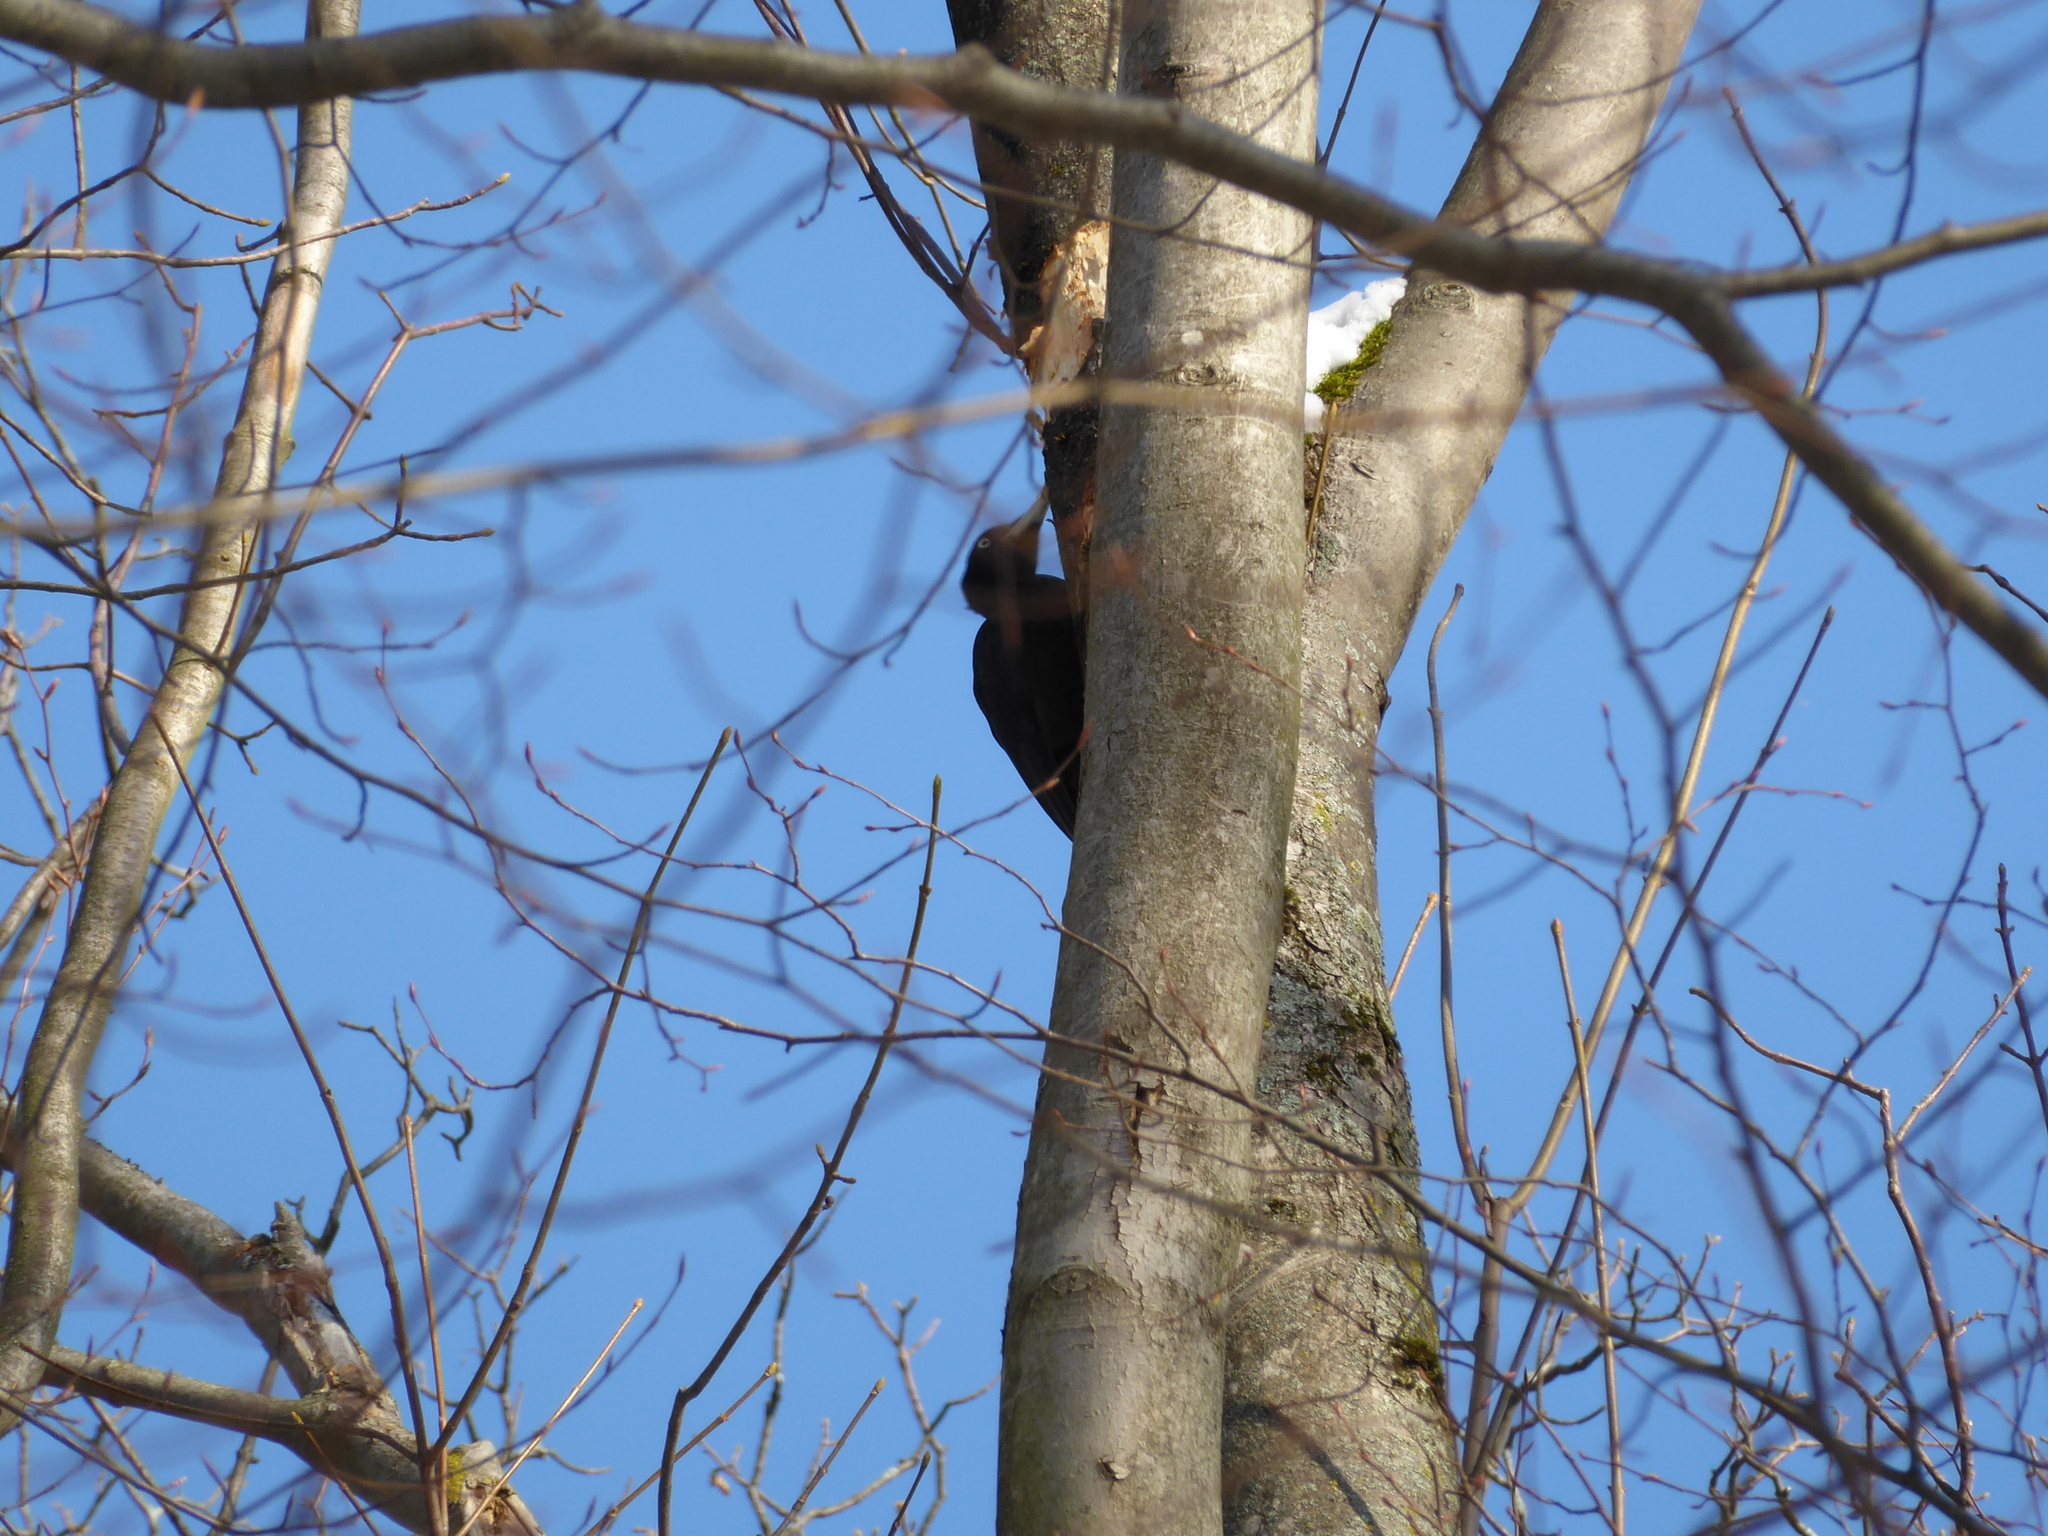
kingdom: Animalia
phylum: Chordata
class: Aves
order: Piciformes
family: Picidae
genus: Dryocopus
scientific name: Dryocopus martius
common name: Black woodpecker
